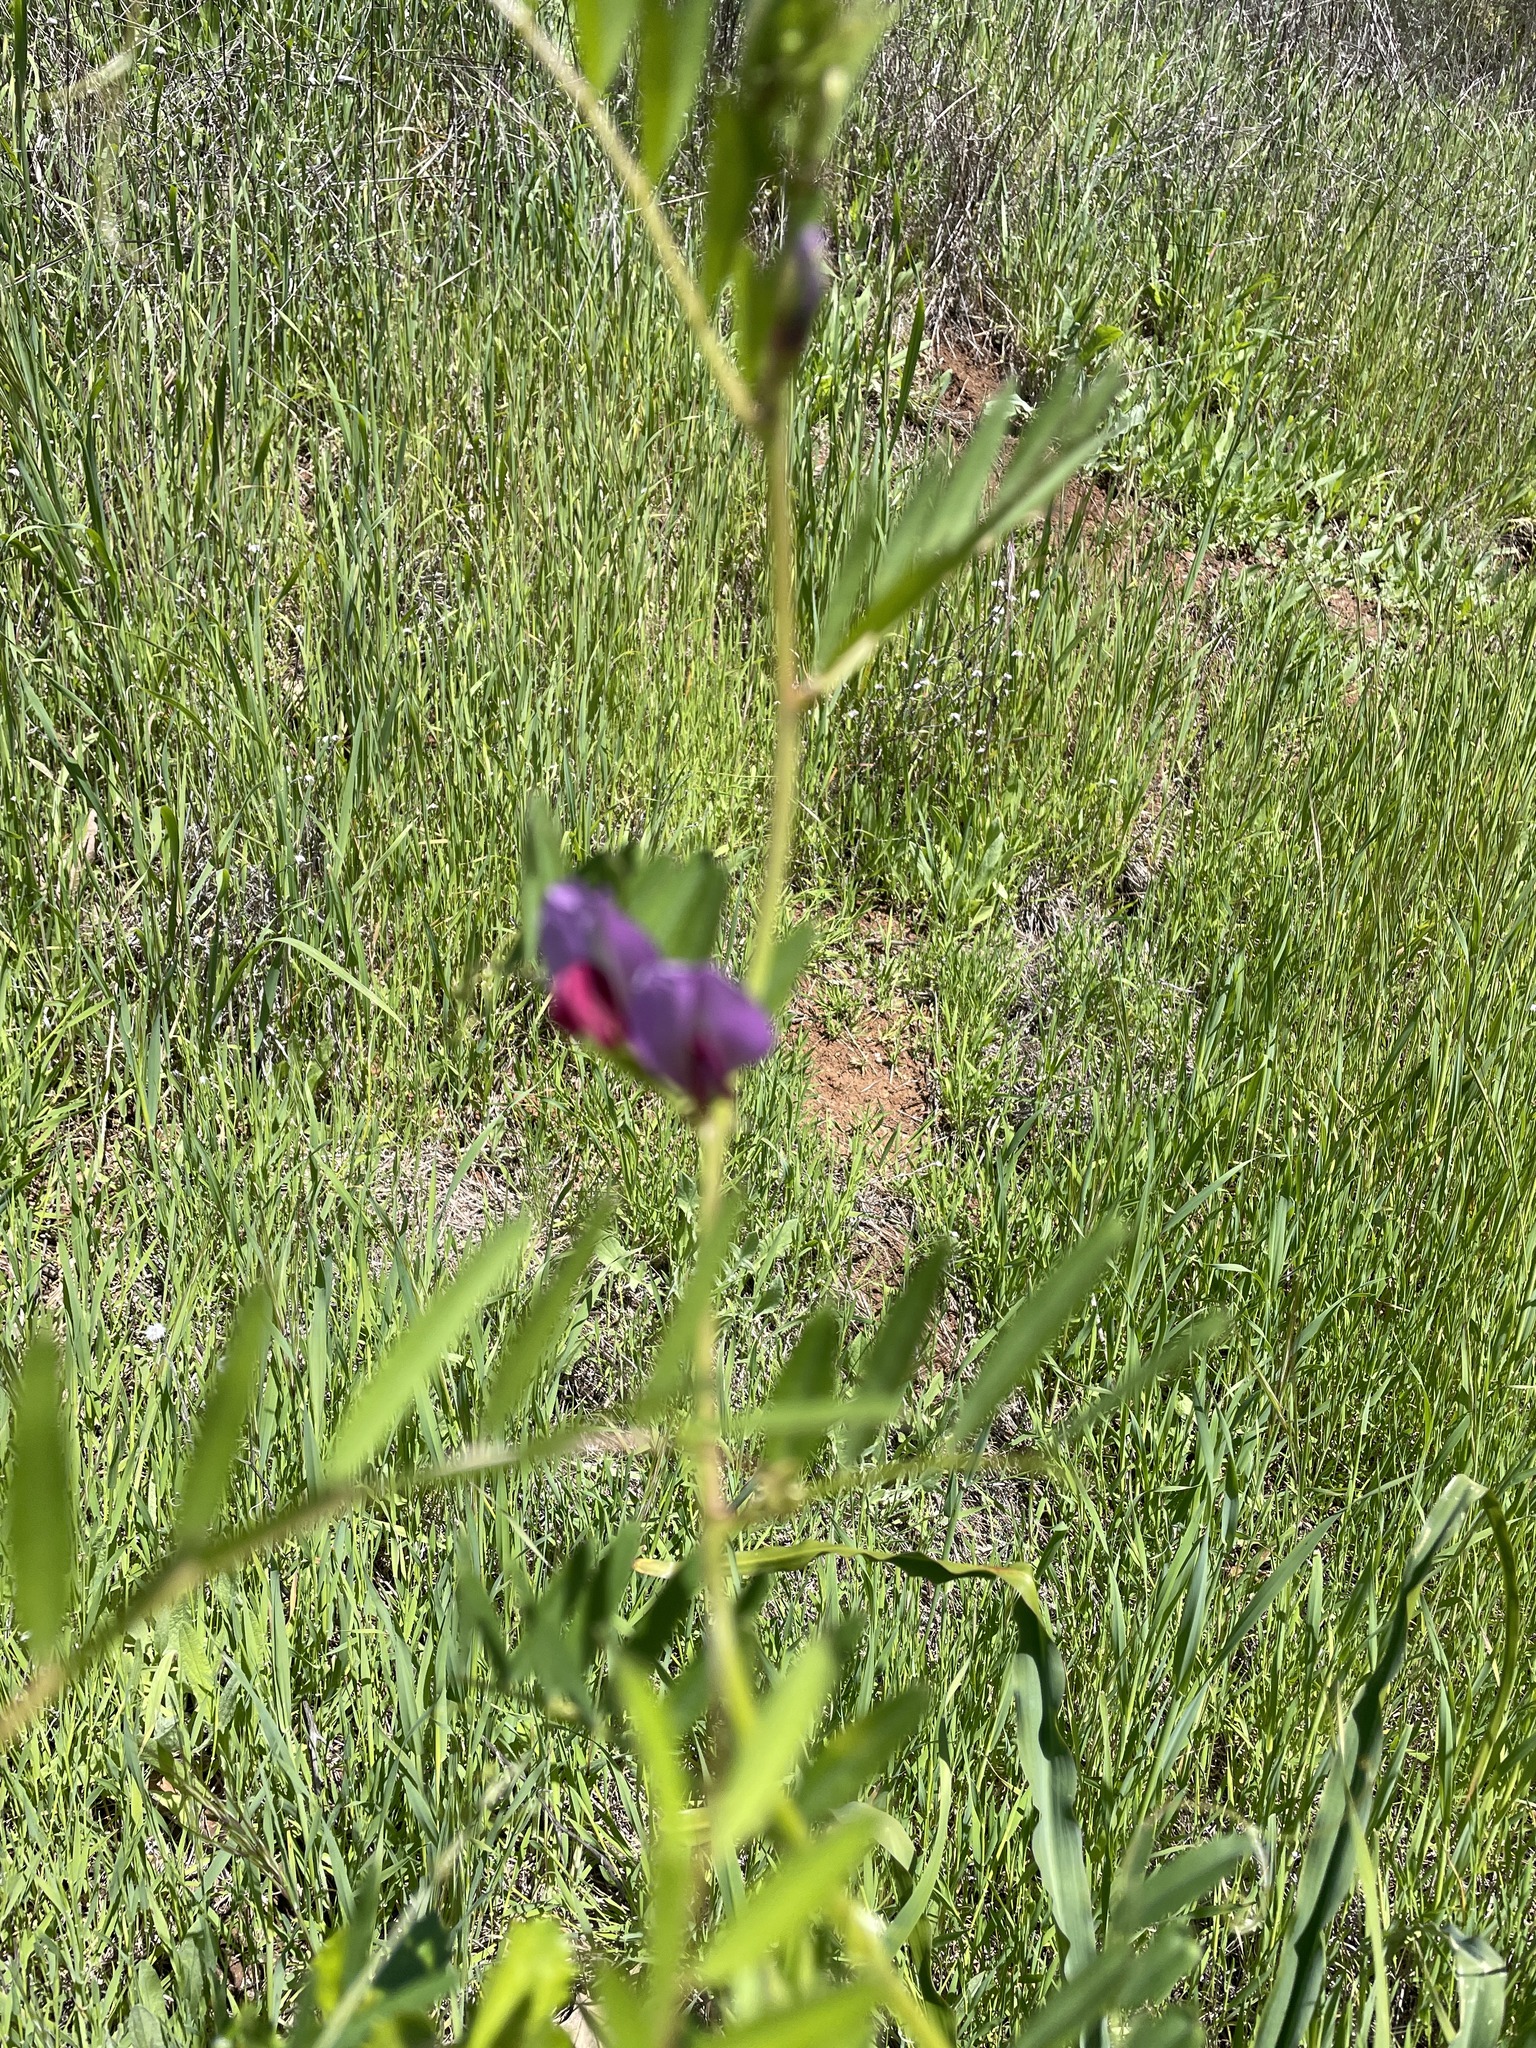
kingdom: Plantae
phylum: Tracheophyta
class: Magnoliopsida
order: Fabales
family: Fabaceae
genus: Vicia
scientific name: Vicia sativa
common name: Garden vetch
